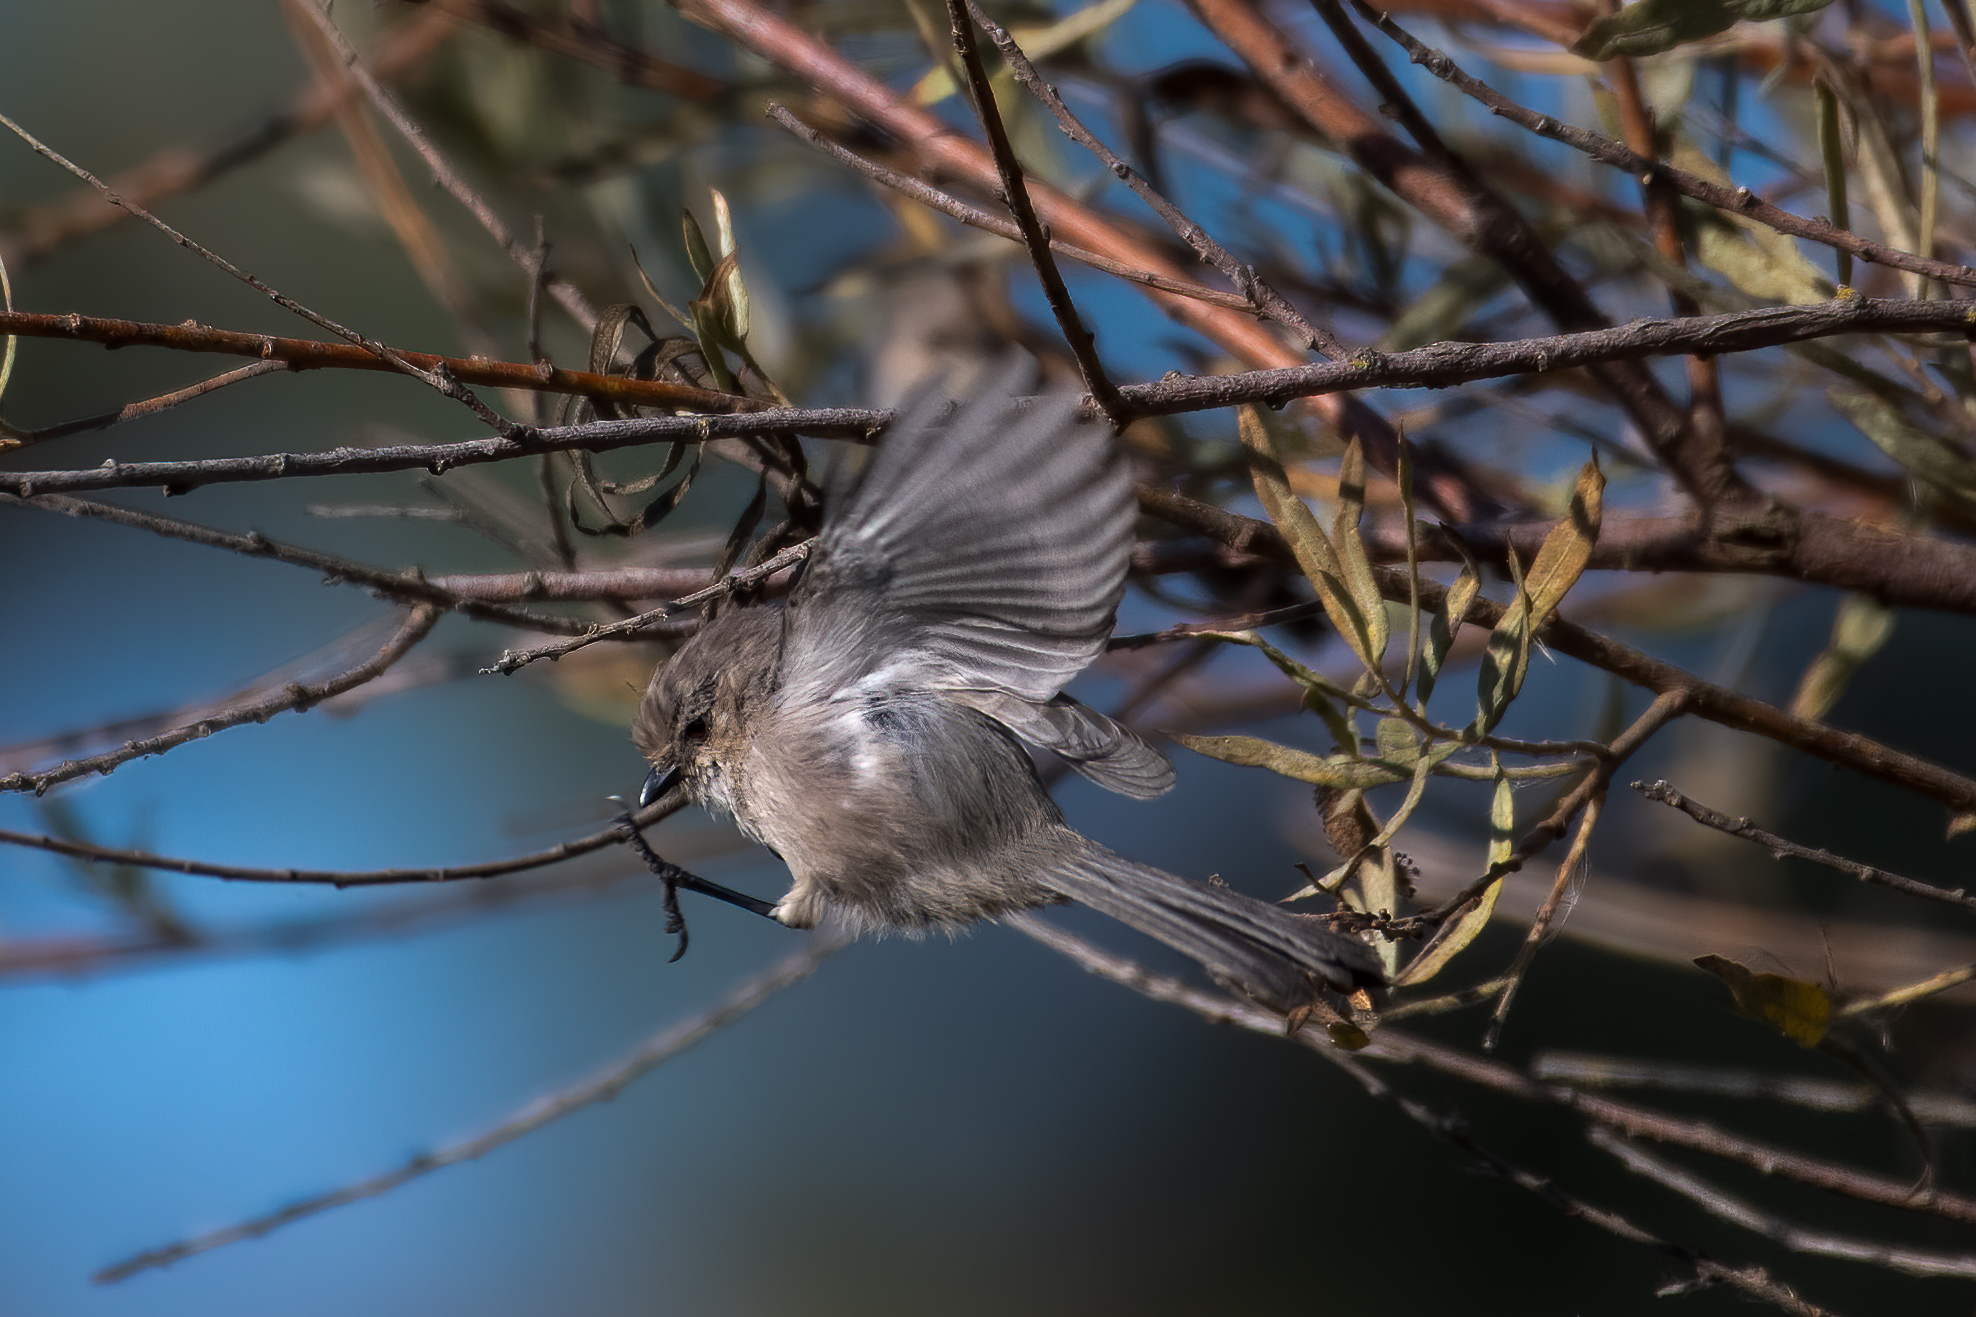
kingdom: Animalia
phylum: Chordata
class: Aves
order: Passeriformes
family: Aegithalidae
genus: Psaltriparus
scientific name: Psaltriparus minimus
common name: American bushtit
